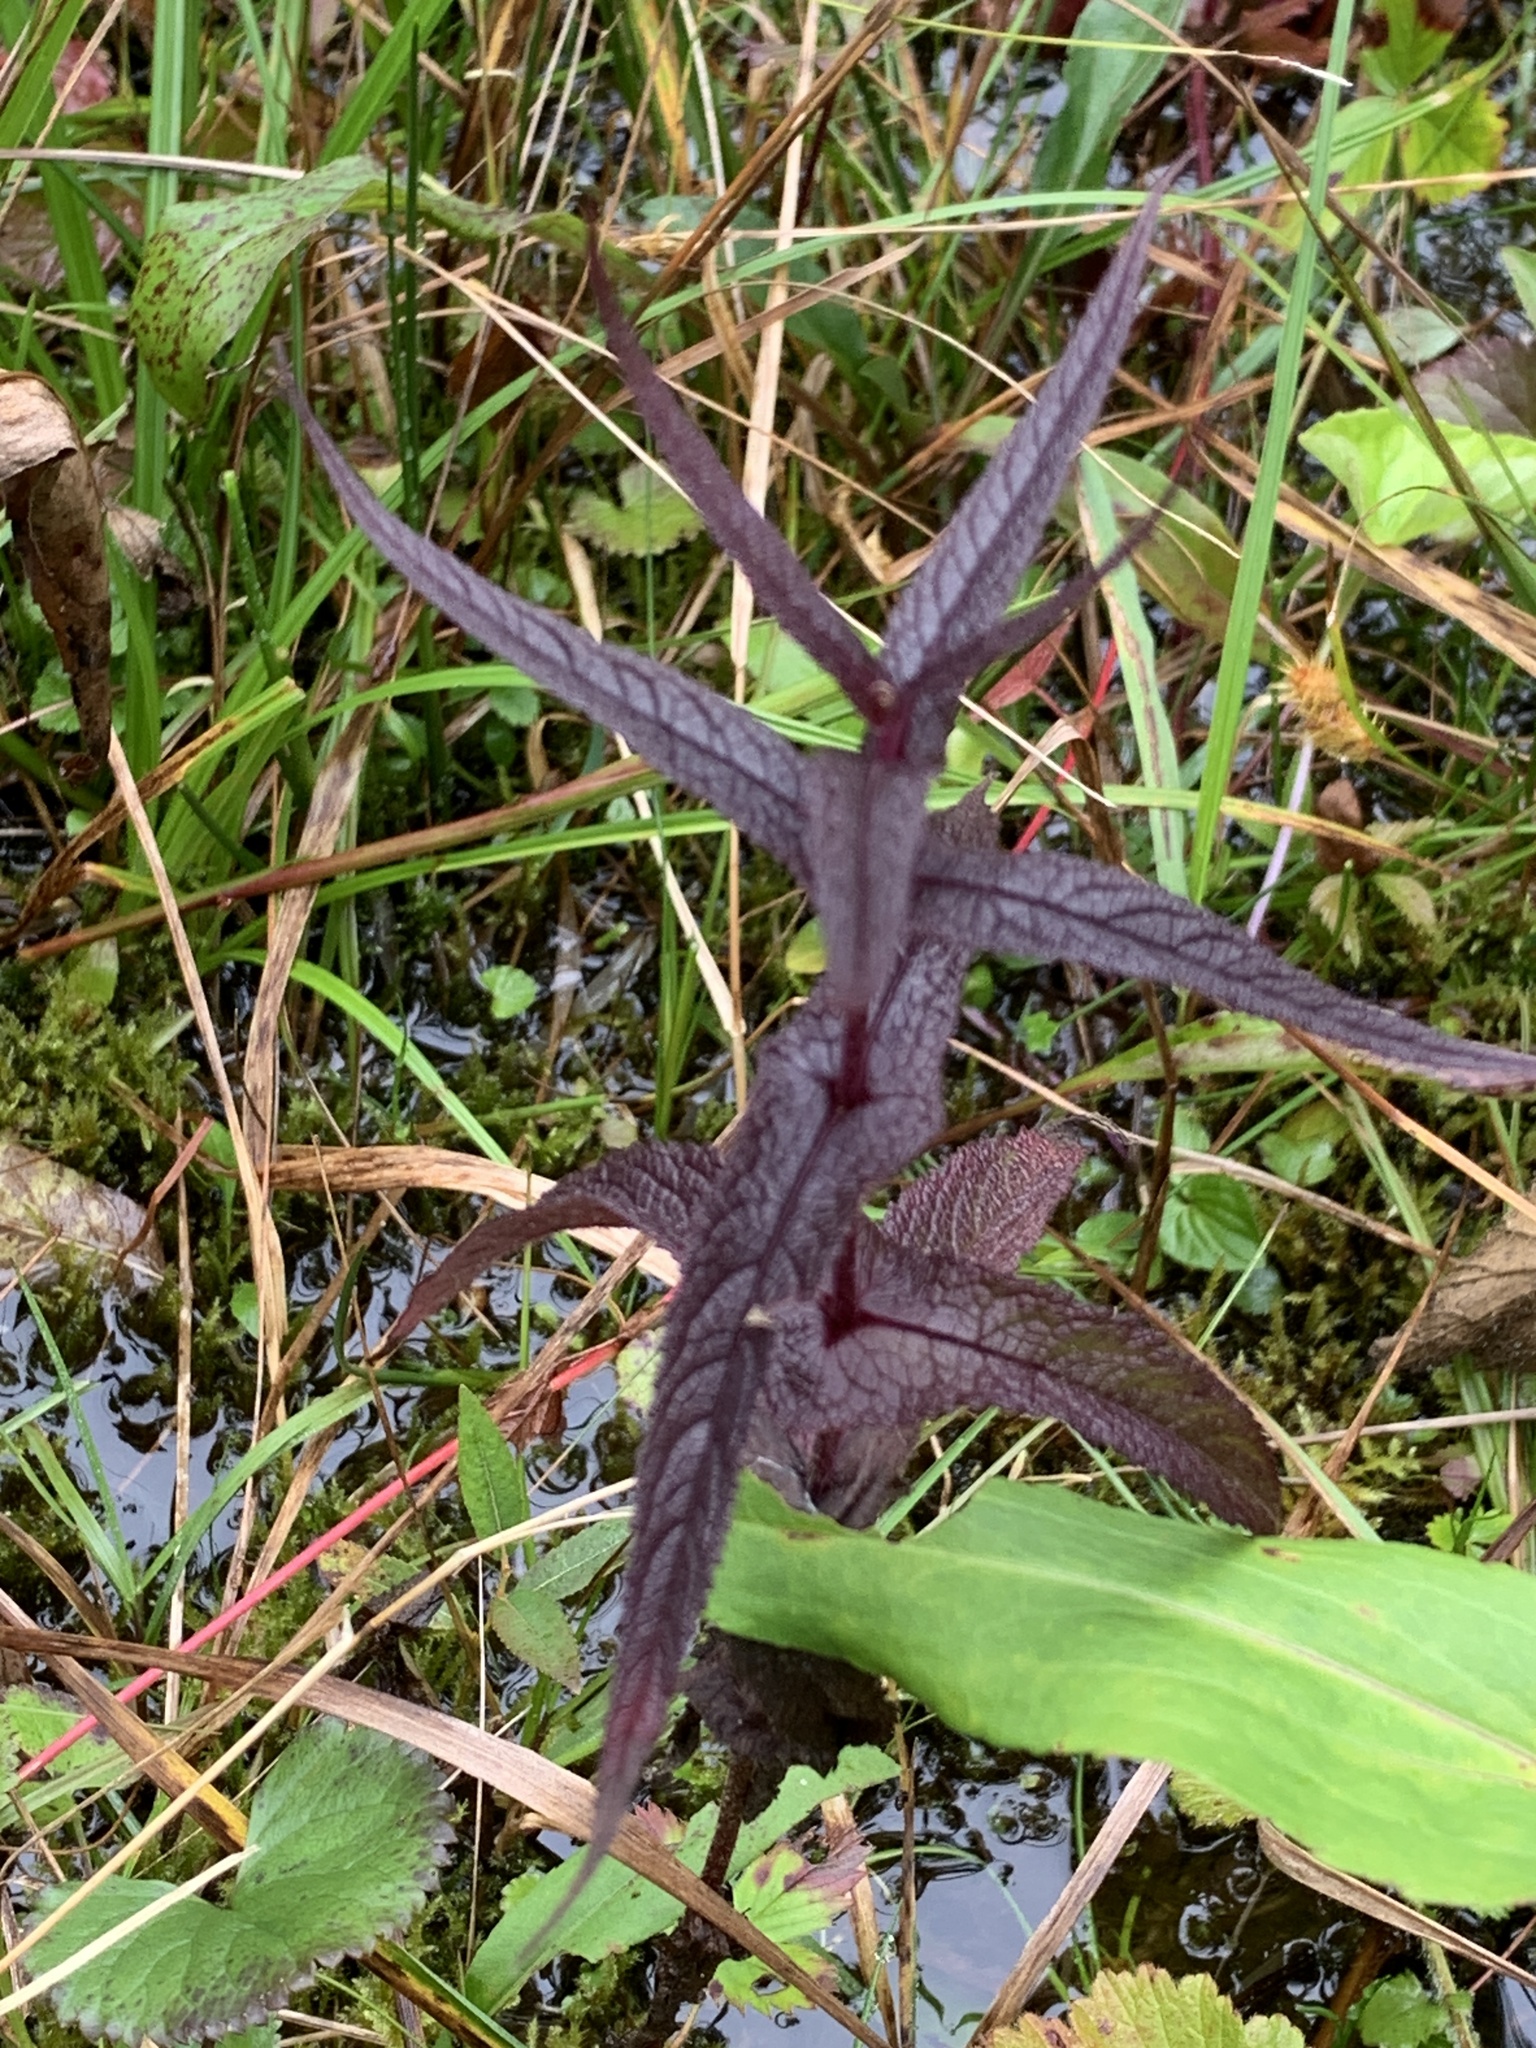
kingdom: Plantae
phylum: Tracheophyta
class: Magnoliopsida
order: Asterales
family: Asteraceae
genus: Eupatorium
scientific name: Eupatorium perfoliatum
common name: Boneset
